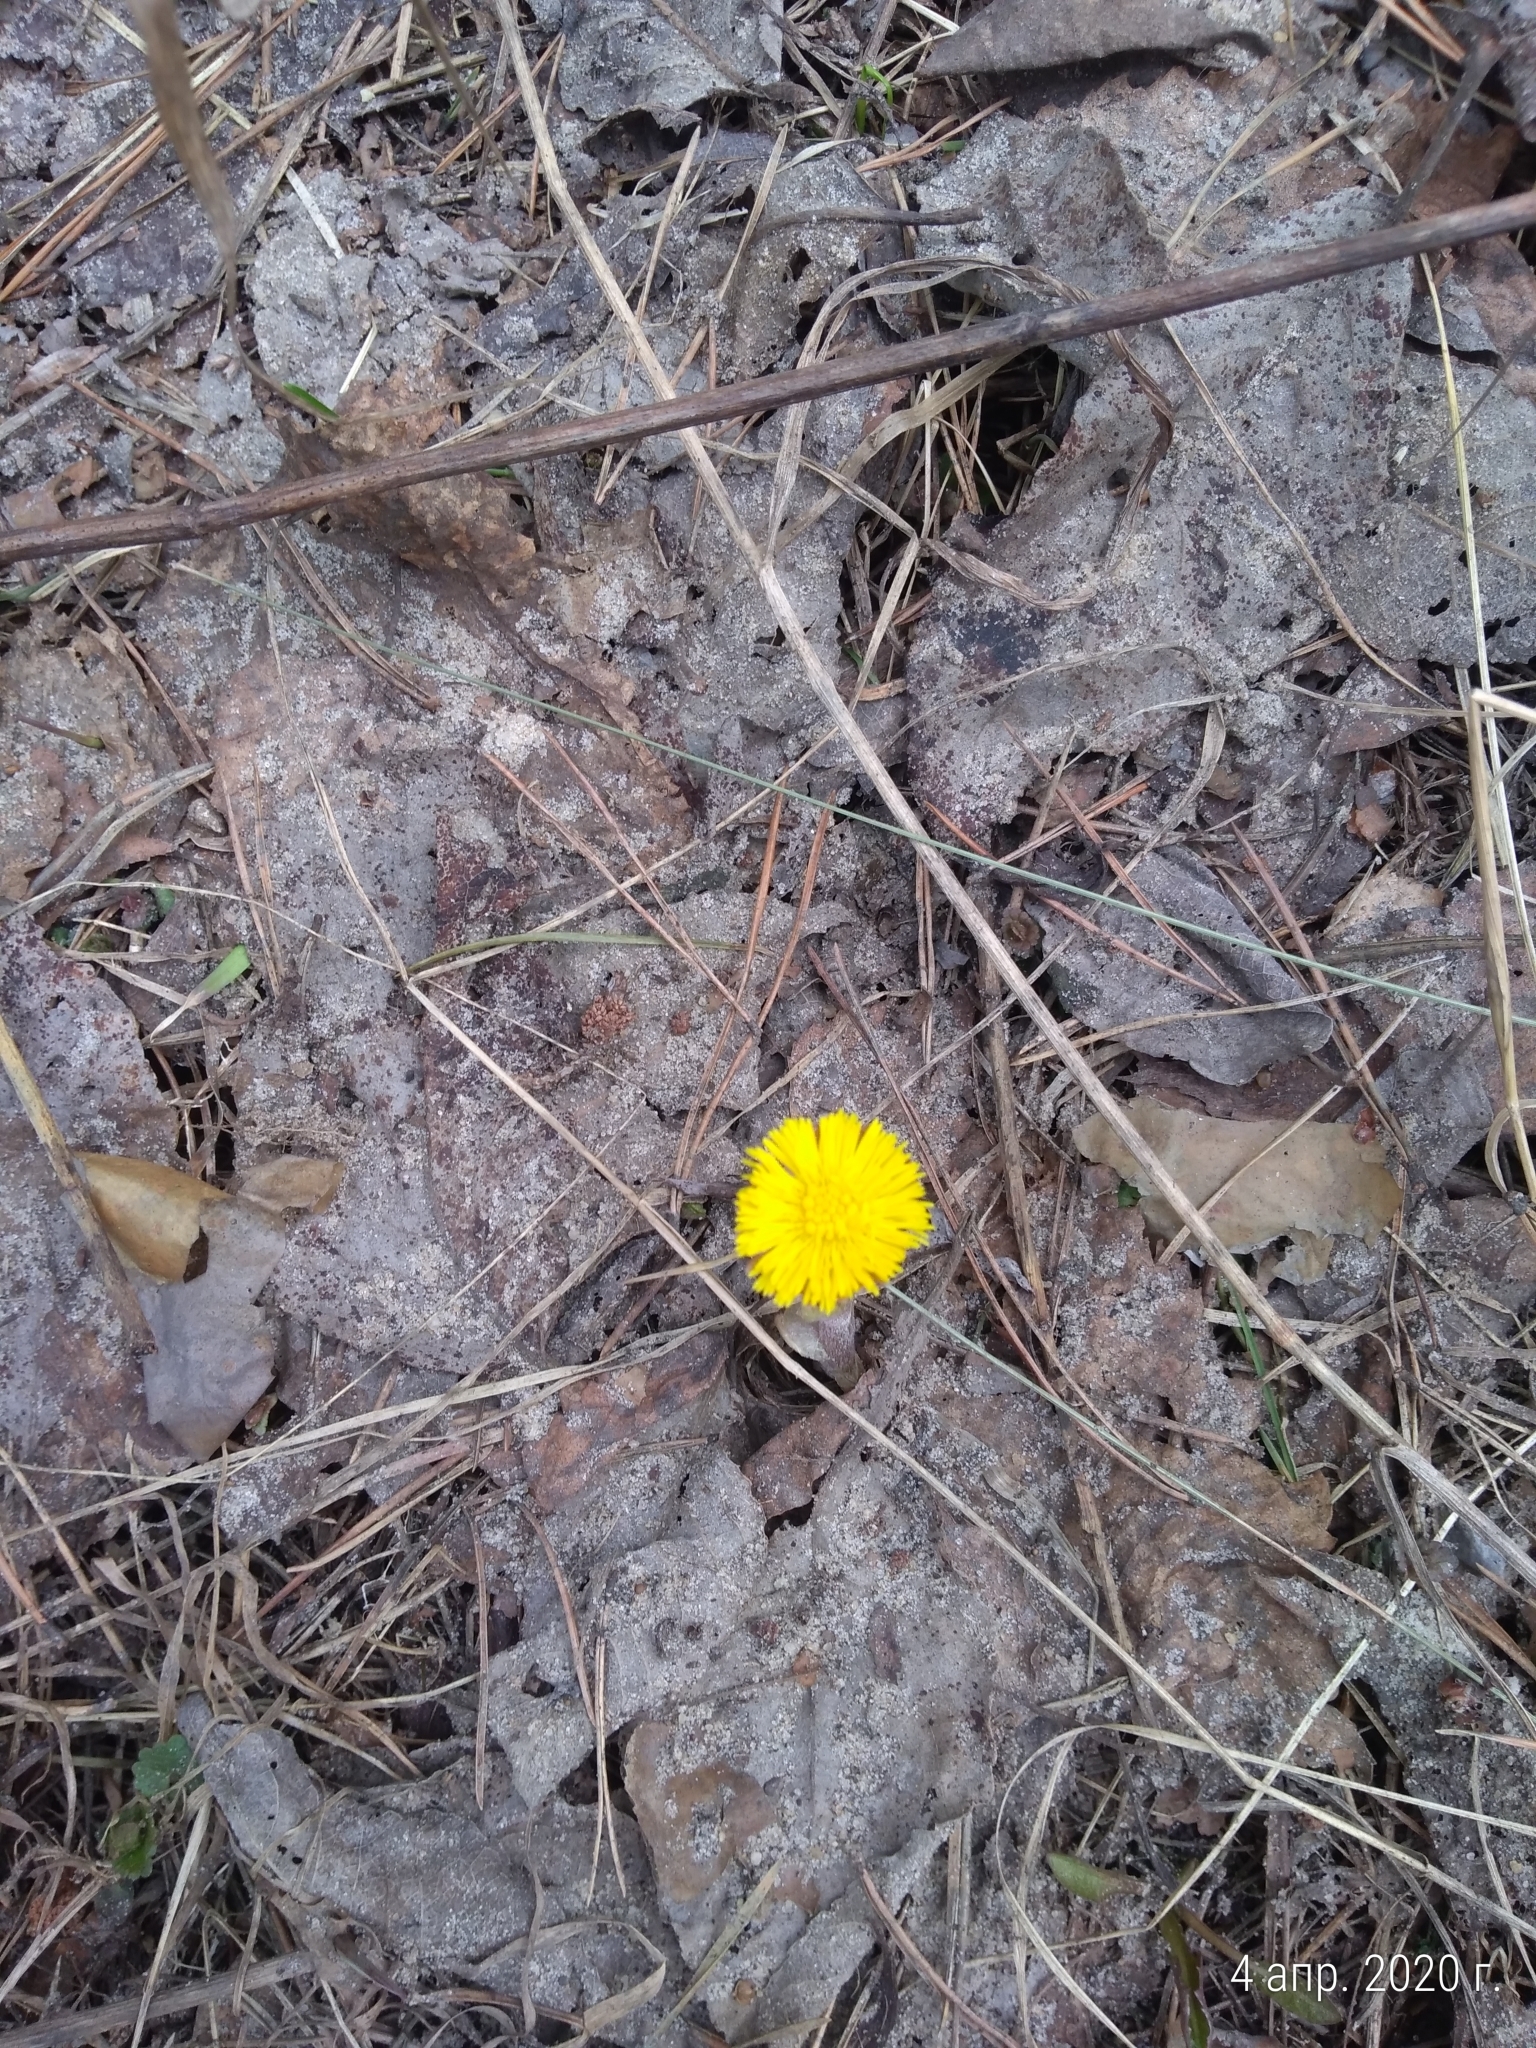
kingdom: Plantae
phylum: Tracheophyta
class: Magnoliopsida
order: Asterales
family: Asteraceae
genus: Tussilago
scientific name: Tussilago farfara
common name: Coltsfoot
